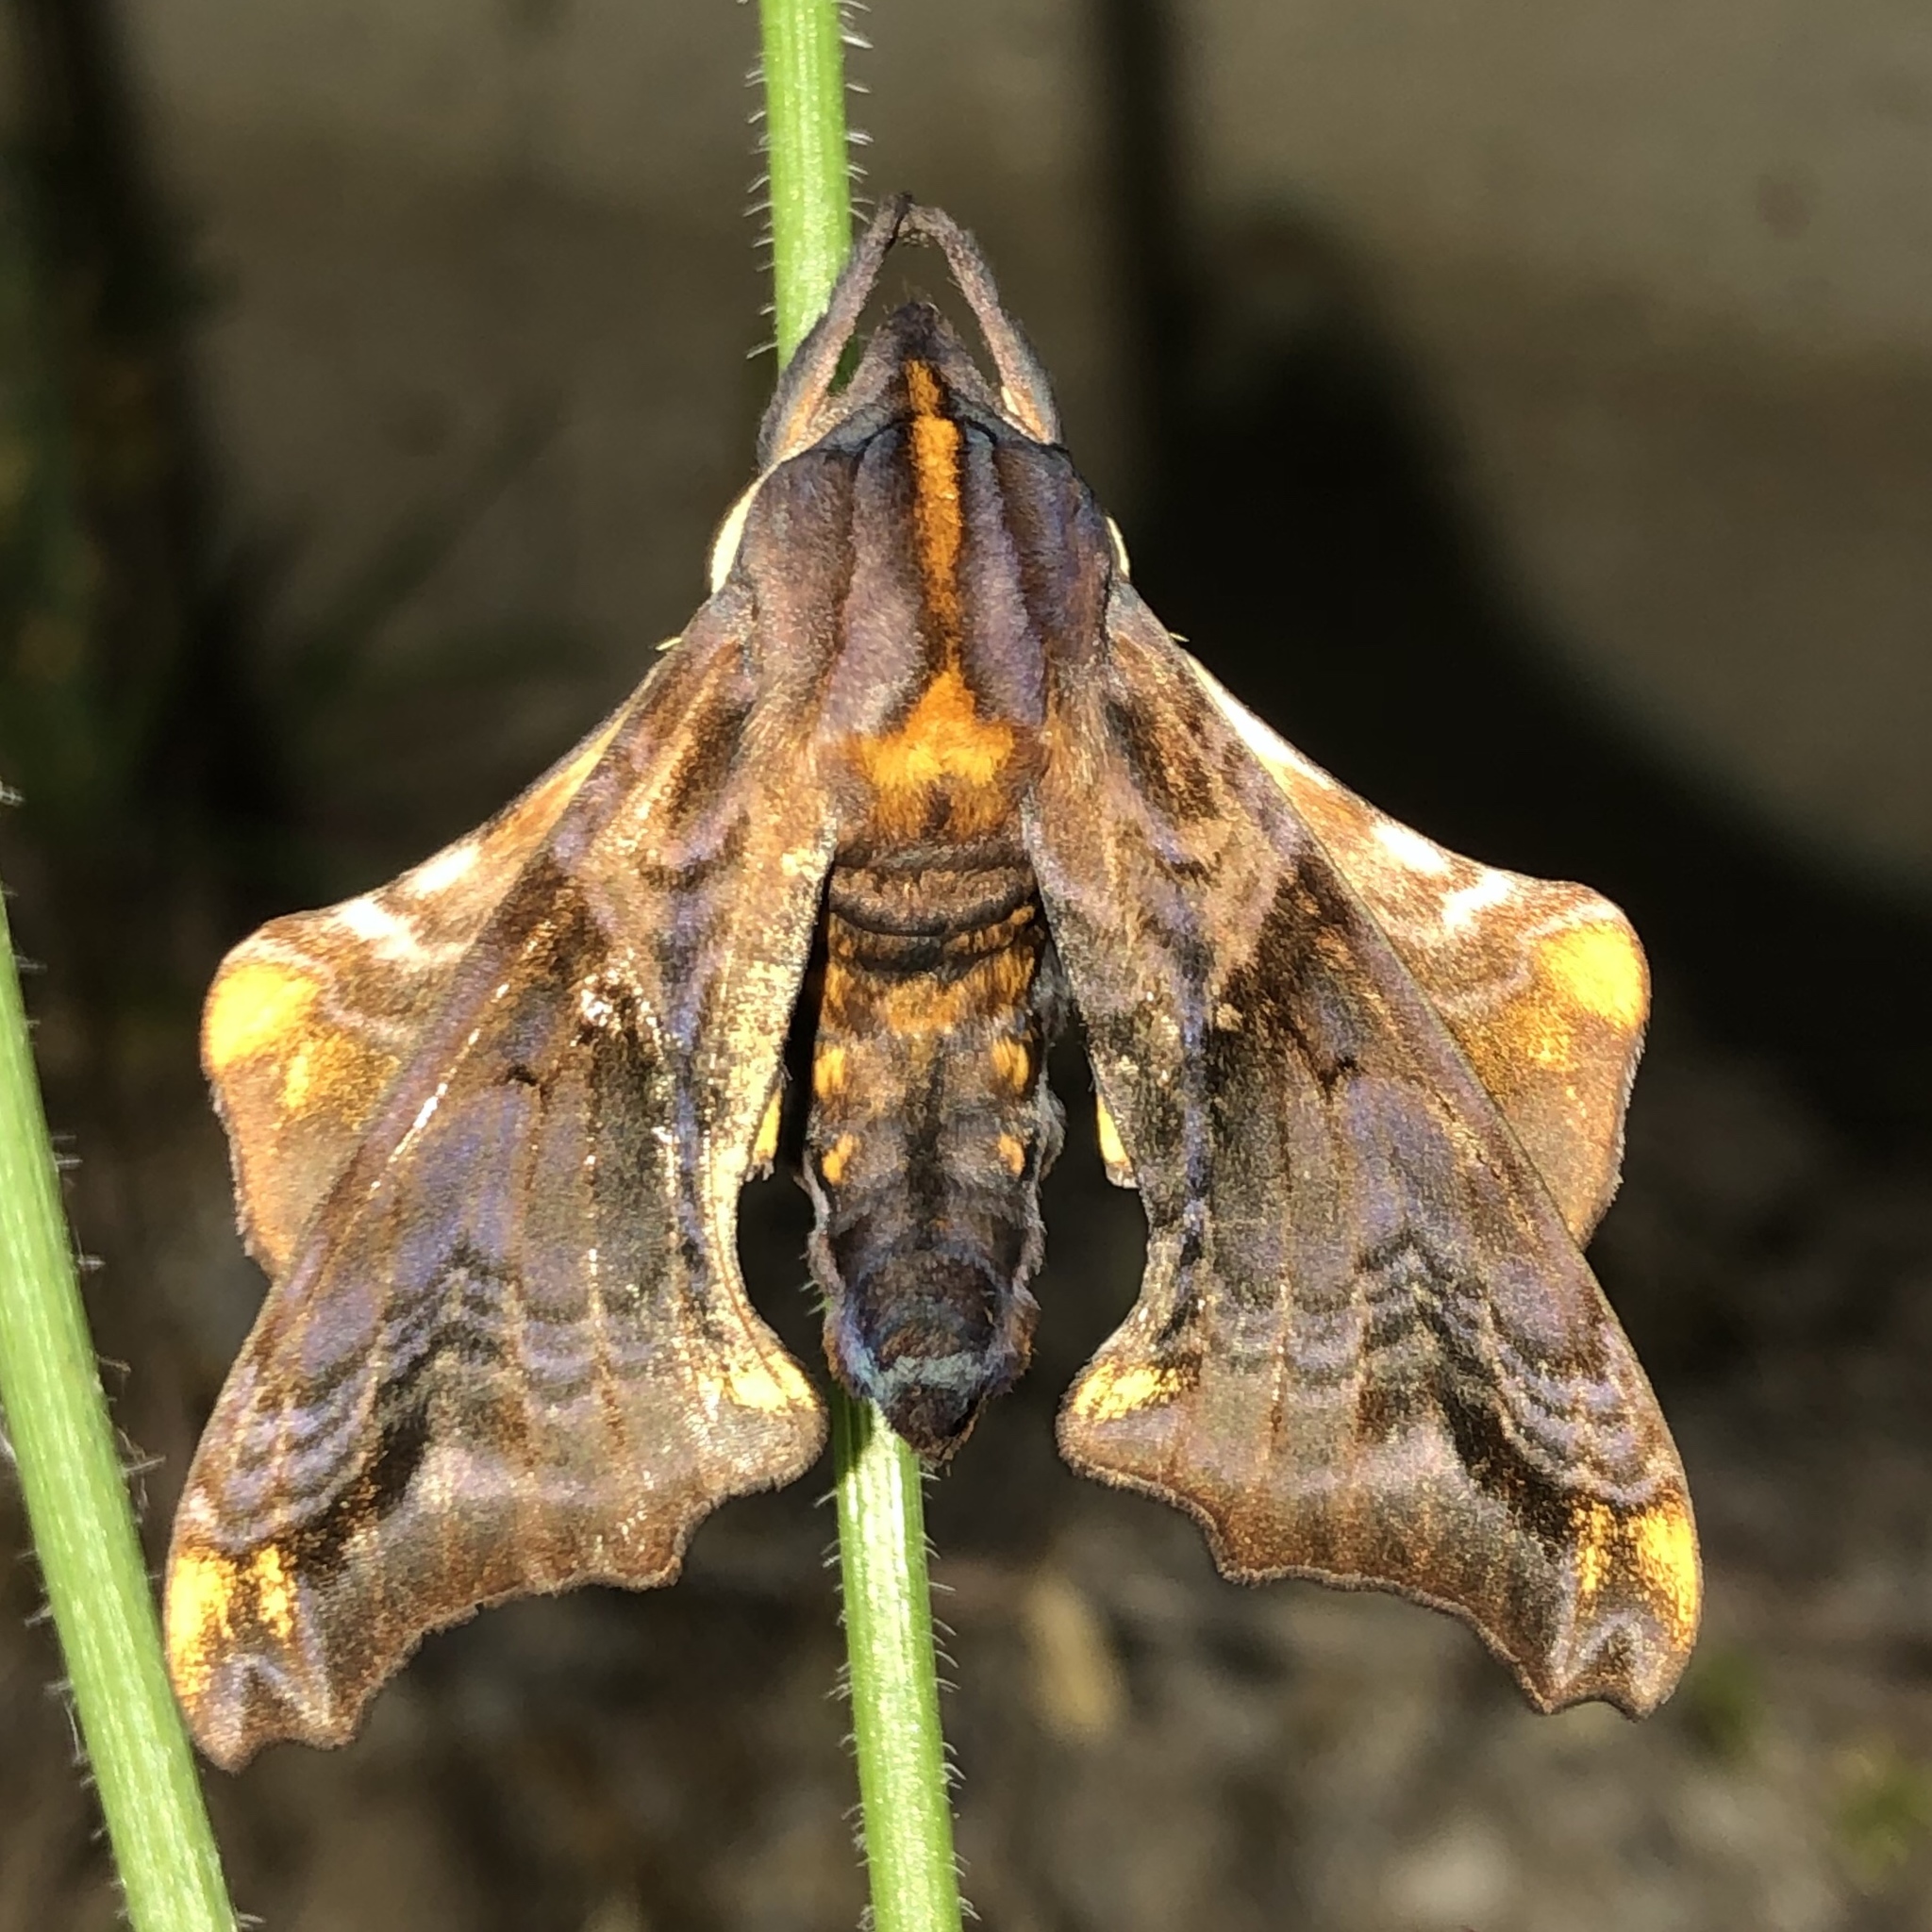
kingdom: Animalia
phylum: Arthropoda
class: Insecta
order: Lepidoptera
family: Sphingidae
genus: Paonias
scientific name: Paonias myops
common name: Small-eyed sphinx
